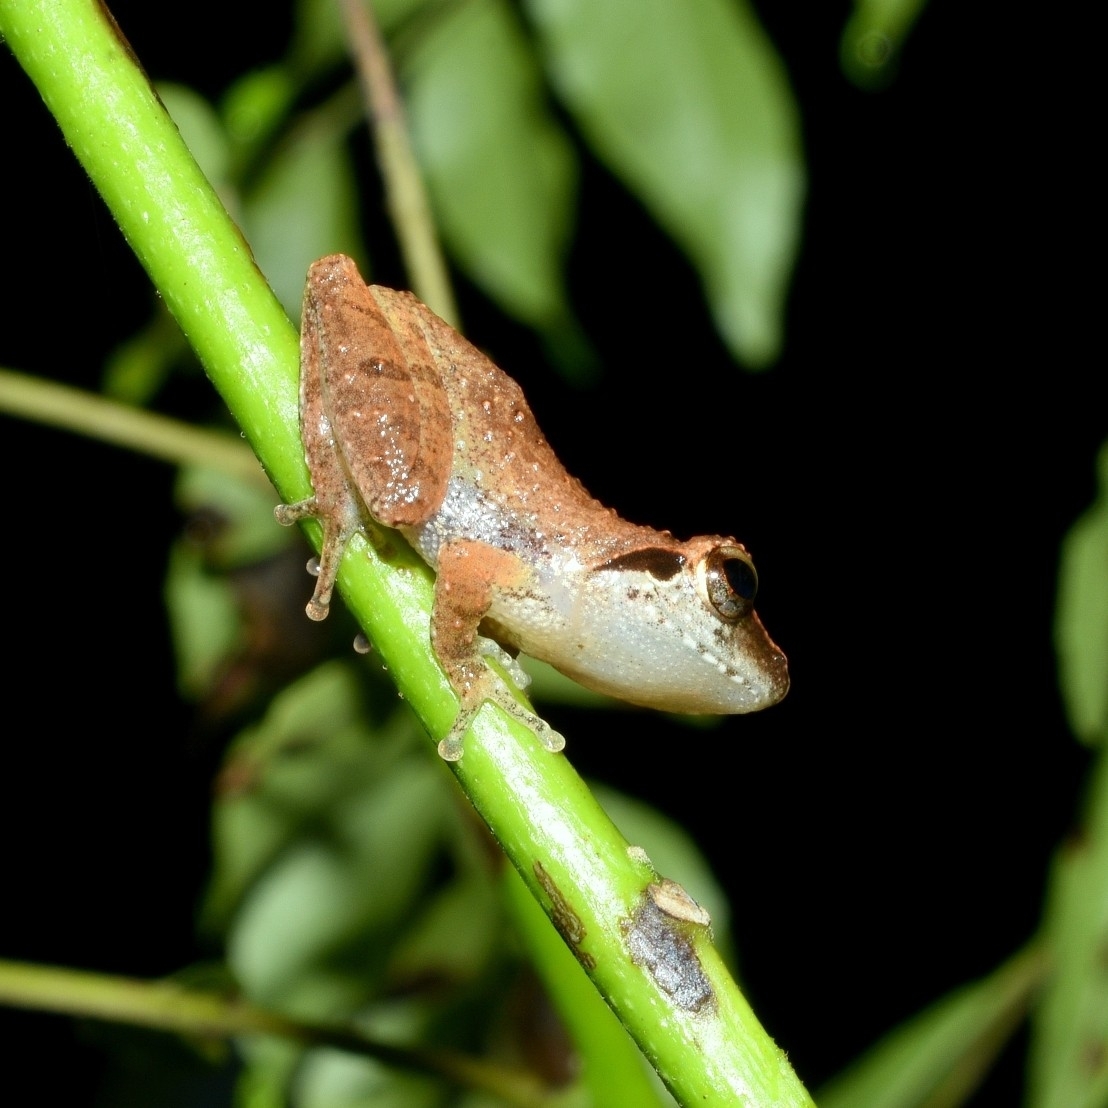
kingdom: Animalia
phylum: Chordata
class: Amphibia
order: Anura
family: Rhacophoridae
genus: Pseudophilautus
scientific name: Pseudophilautus wynaadensis
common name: Dark-eared bush frog
